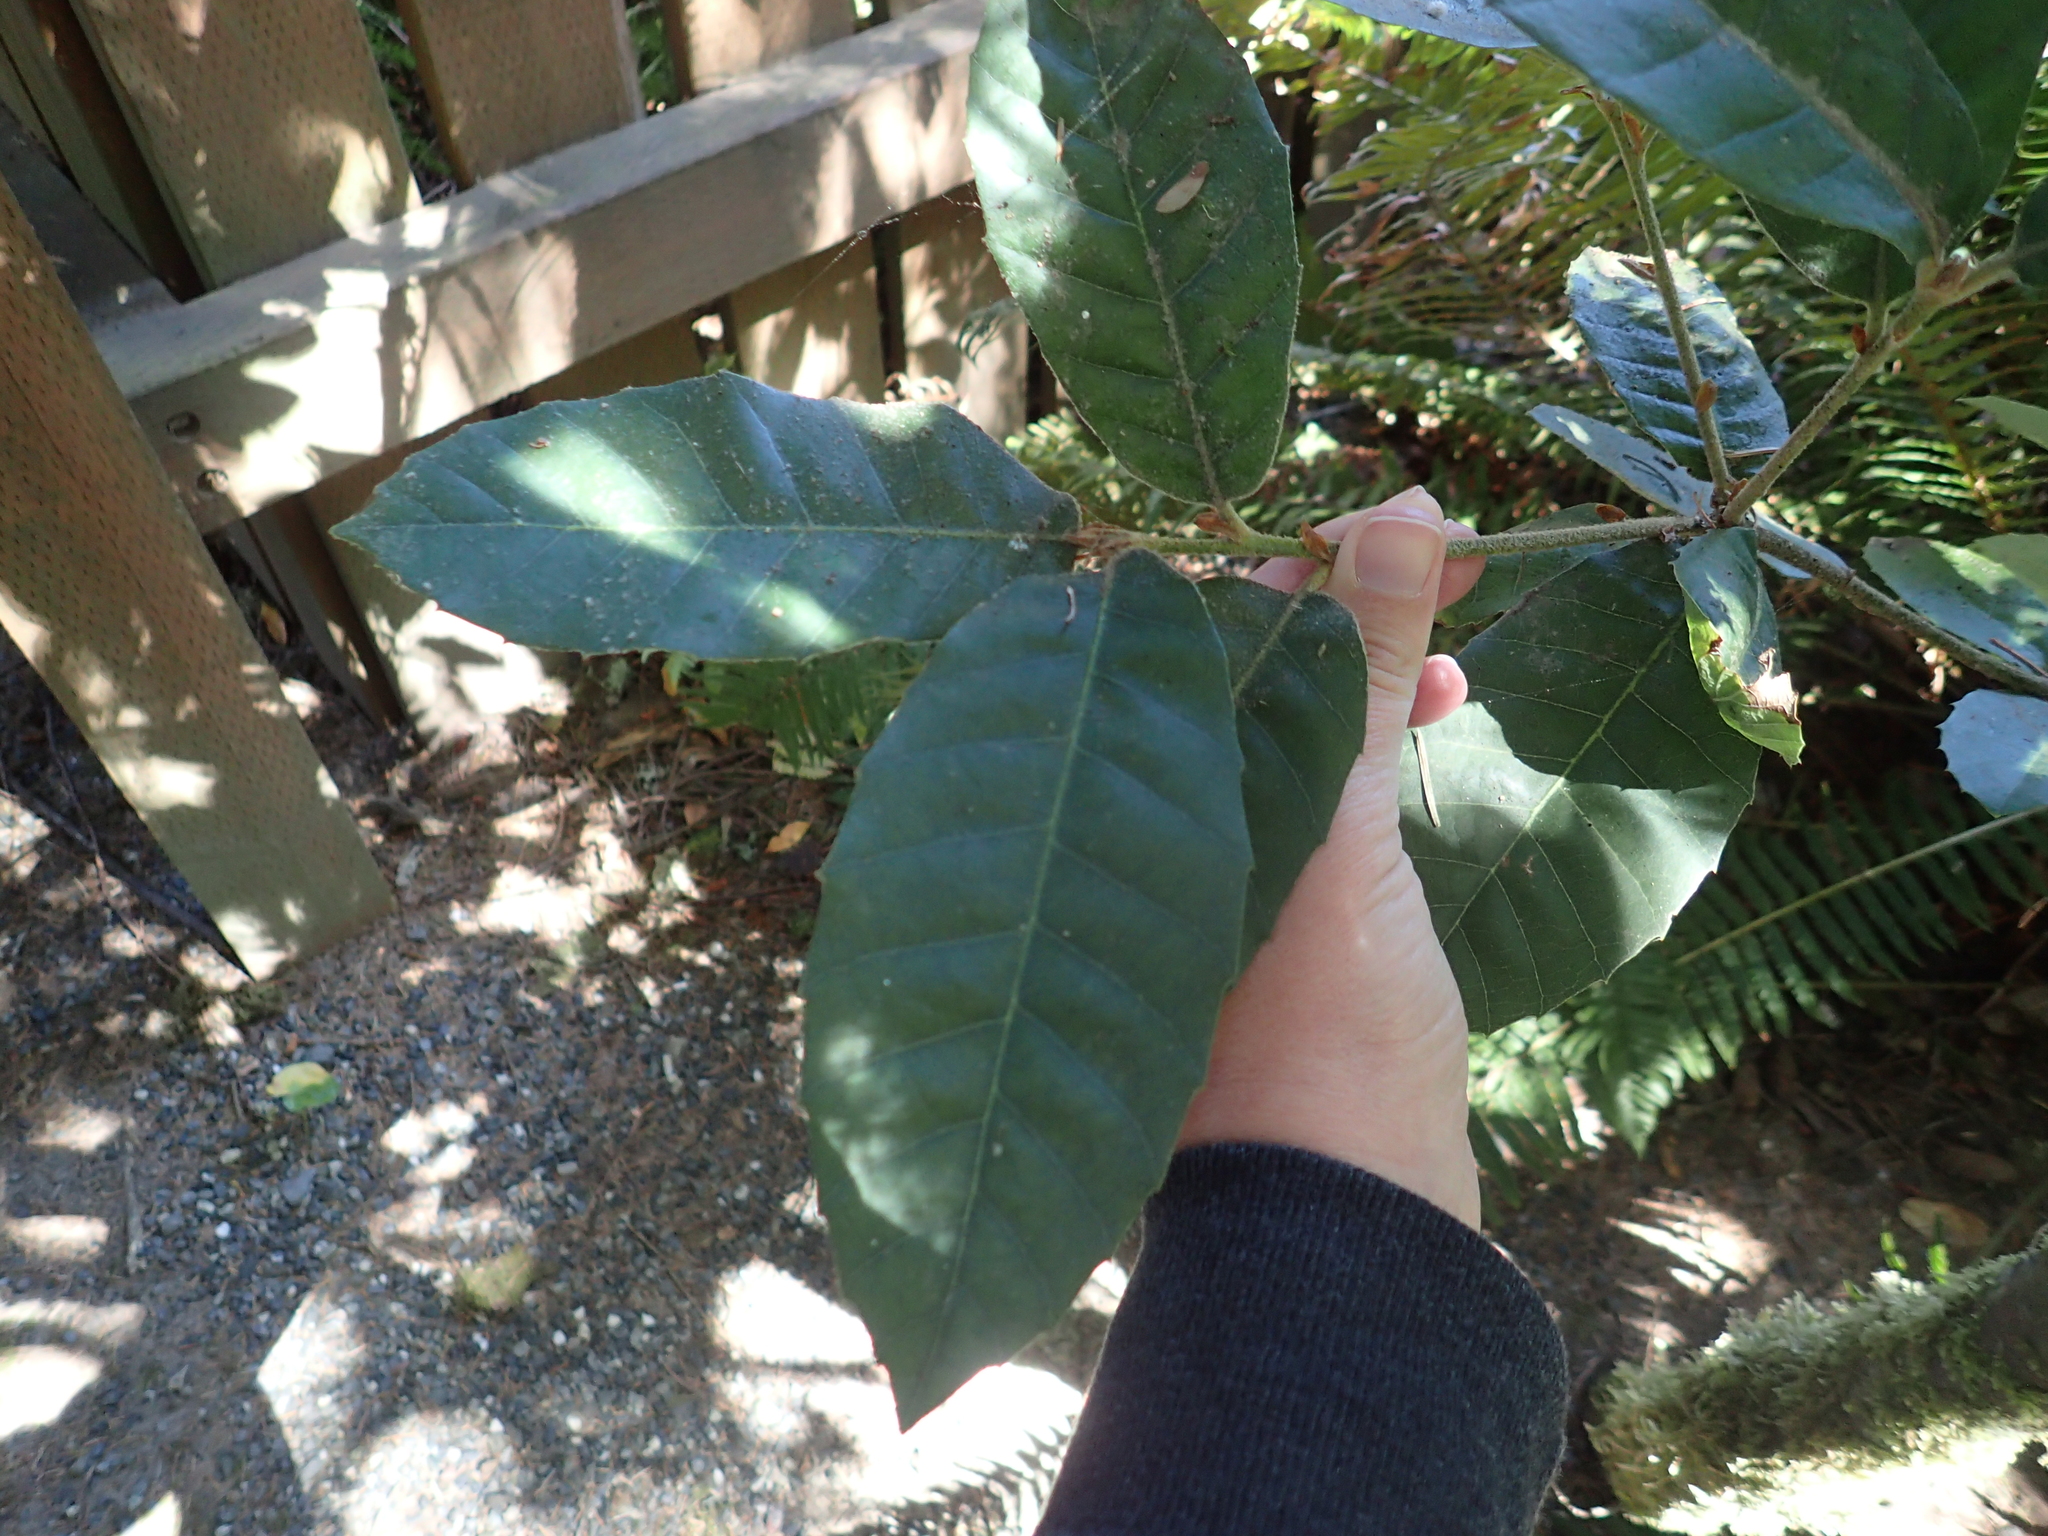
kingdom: Plantae
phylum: Tracheophyta
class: Magnoliopsida
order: Fagales
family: Fagaceae
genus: Notholithocarpus
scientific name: Notholithocarpus densiflorus
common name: Tan bark oak
